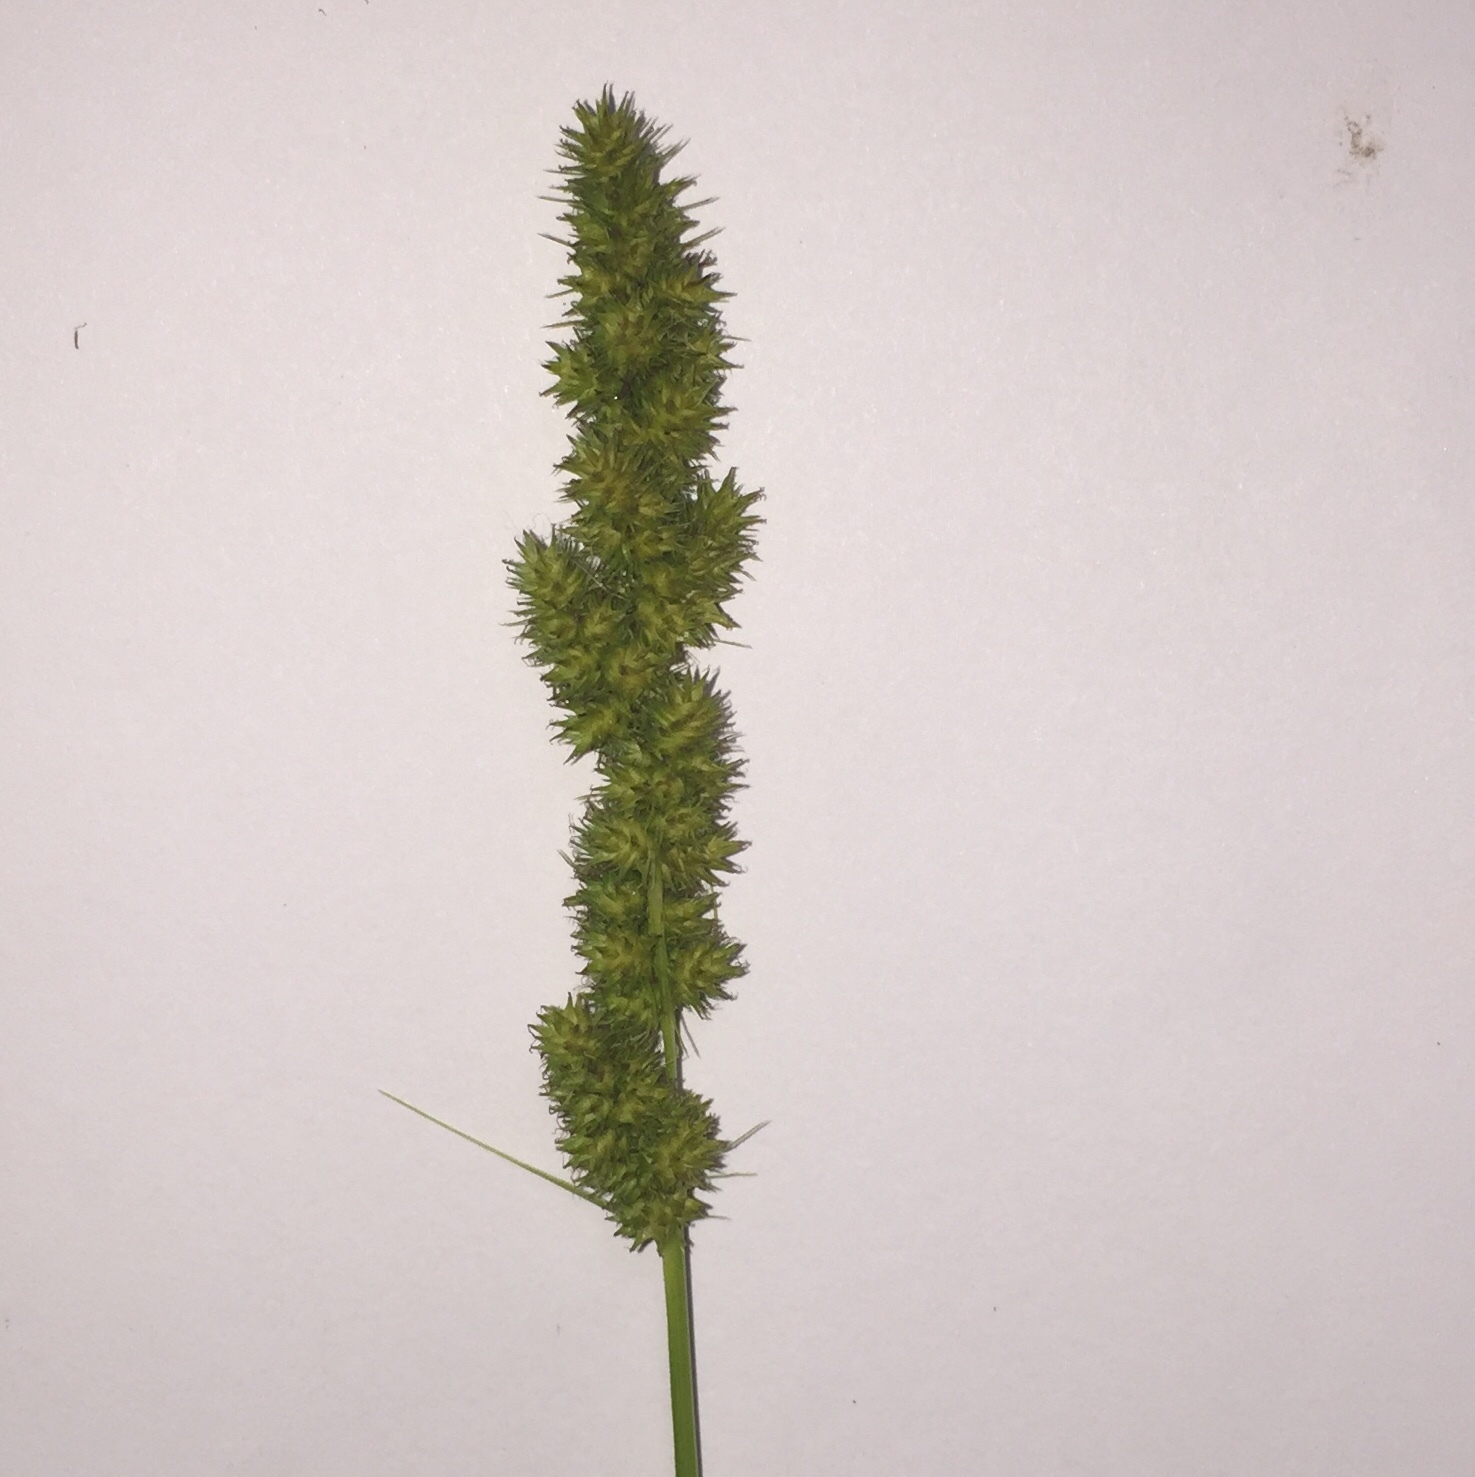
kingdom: Plantae
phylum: Tracheophyta
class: Liliopsida
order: Poales
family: Cyperaceae
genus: Carex
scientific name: Carex vulpinoidea
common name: American fox-sedge
